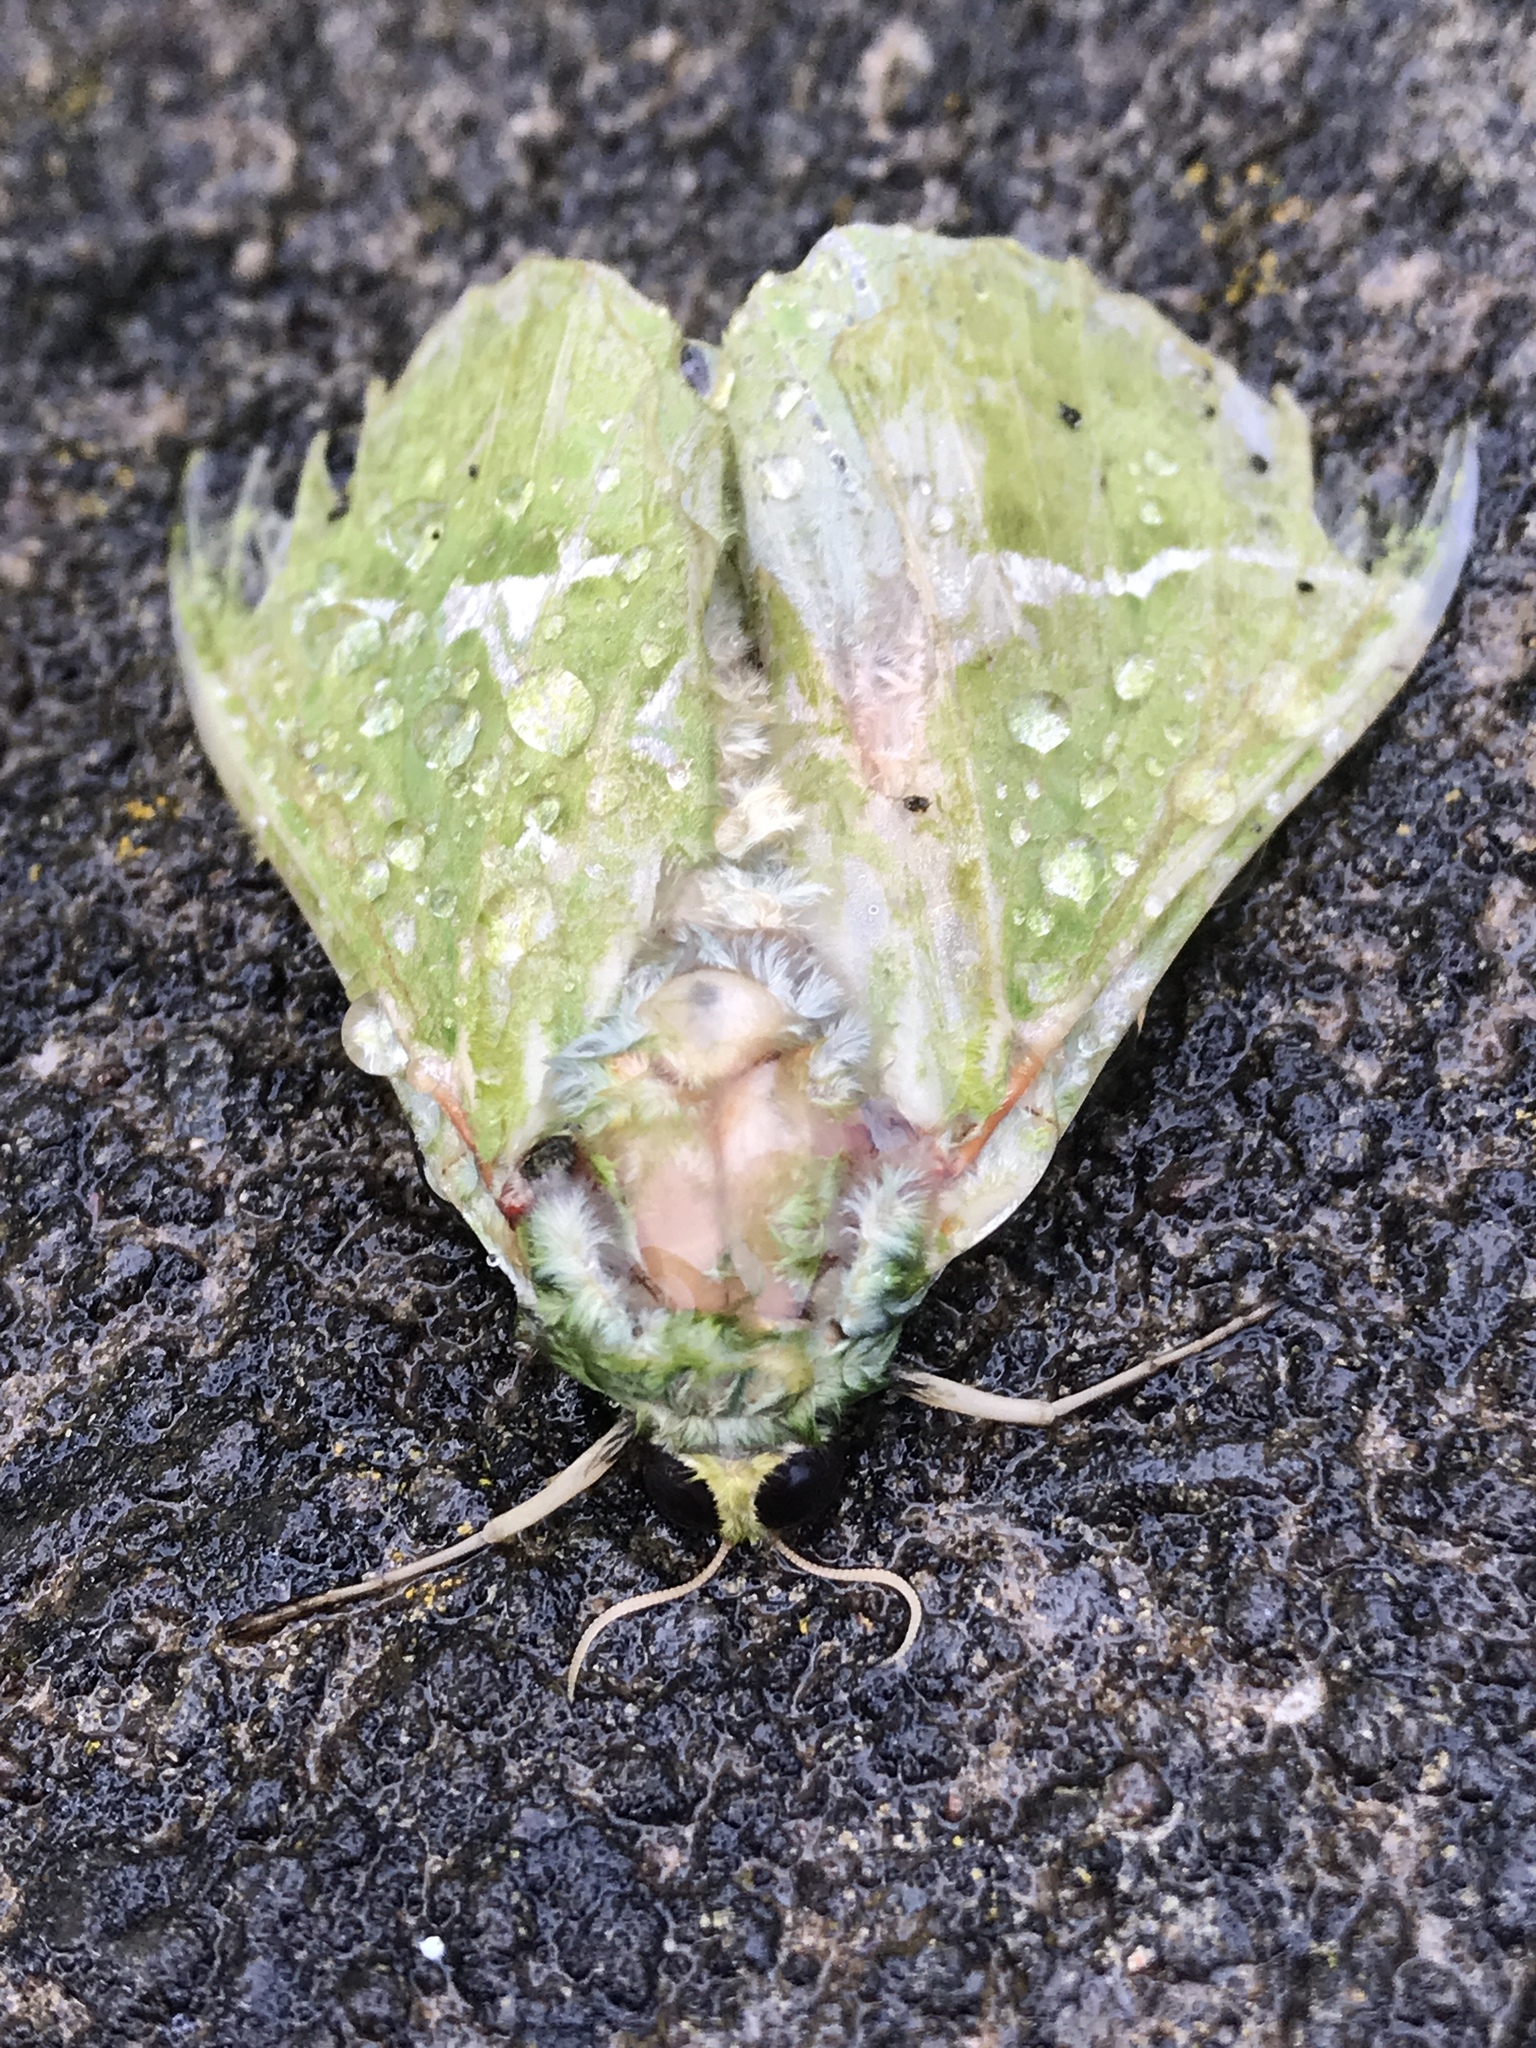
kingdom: Animalia
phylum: Arthropoda
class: Insecta
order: Lepidoptera
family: Hepialidae
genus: Aenetus
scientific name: Aenetus virescens
